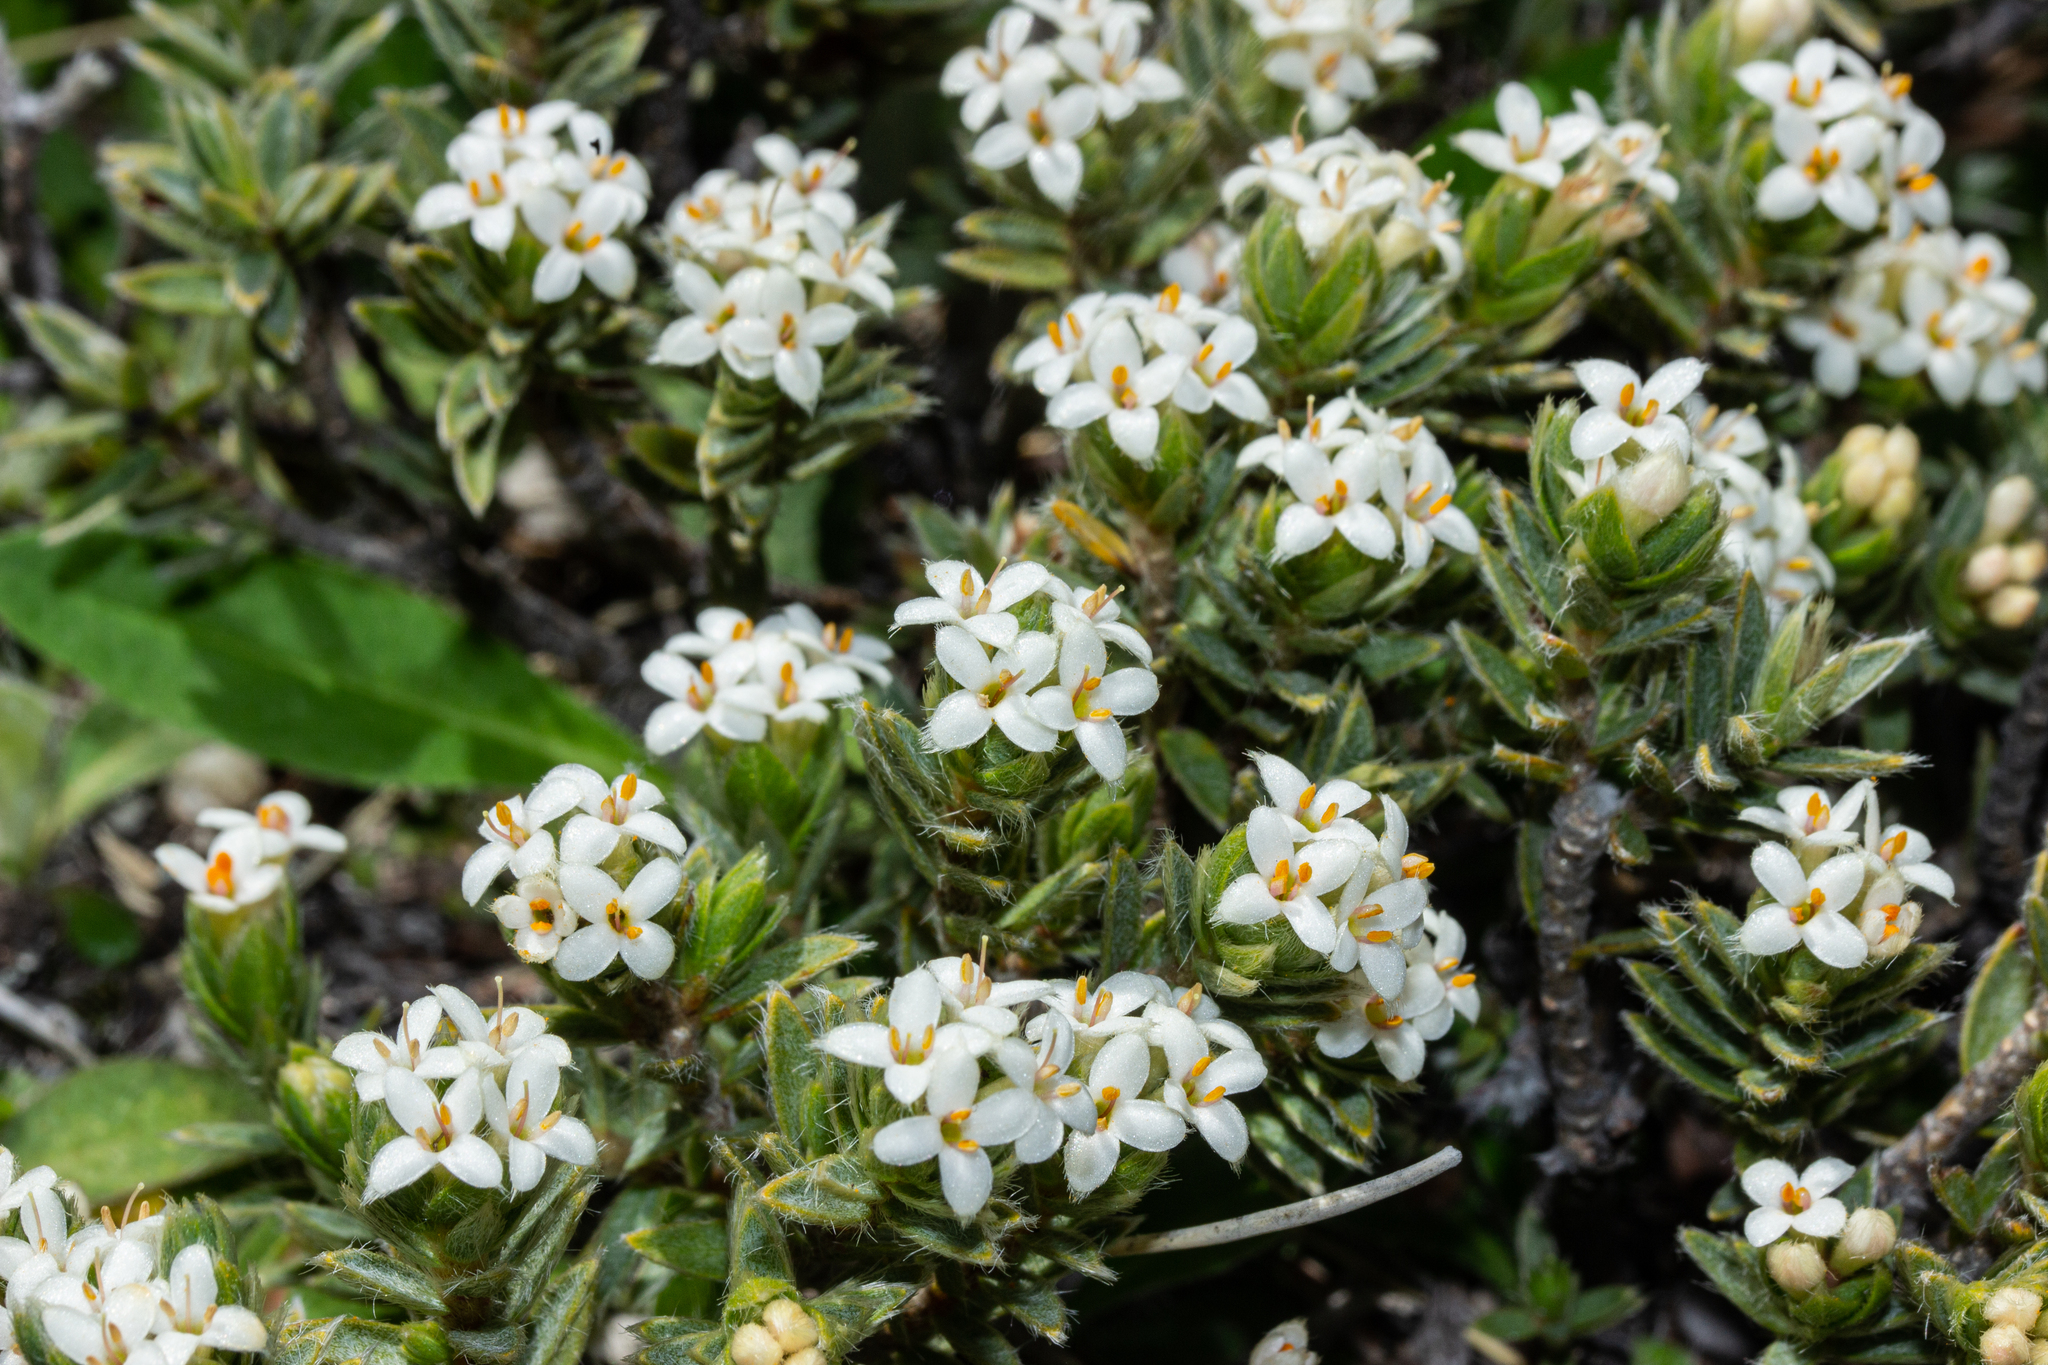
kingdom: Plantae
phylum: Tracheophyta
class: Magnoliopsida
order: Malvales
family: Thymelaeaceae
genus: Pimelea
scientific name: Pimelea oreophila
